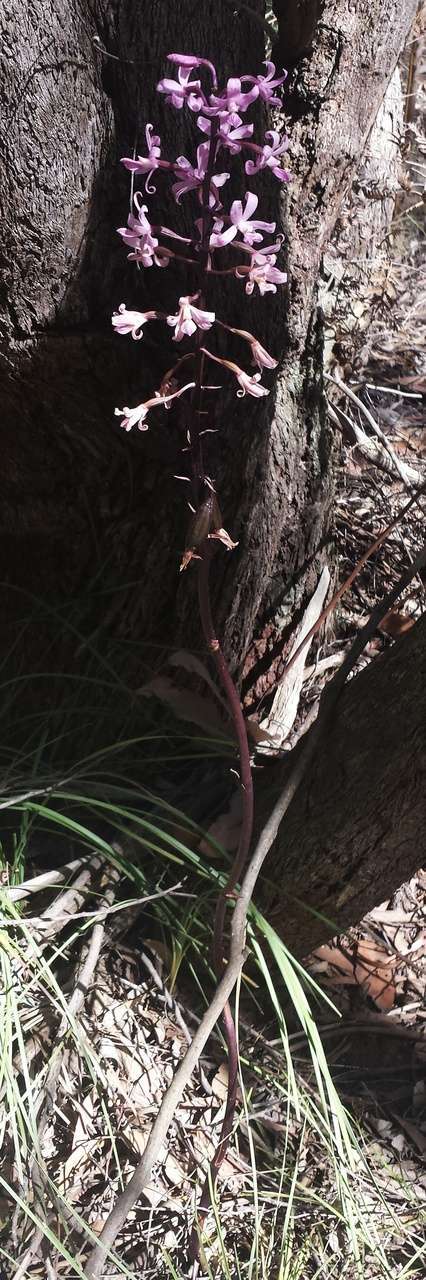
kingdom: Plantae
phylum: Tracheophyta
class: Liliopsida
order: Asparagales
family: Orchidaceae
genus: Dipodium
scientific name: Dipodium roseum
